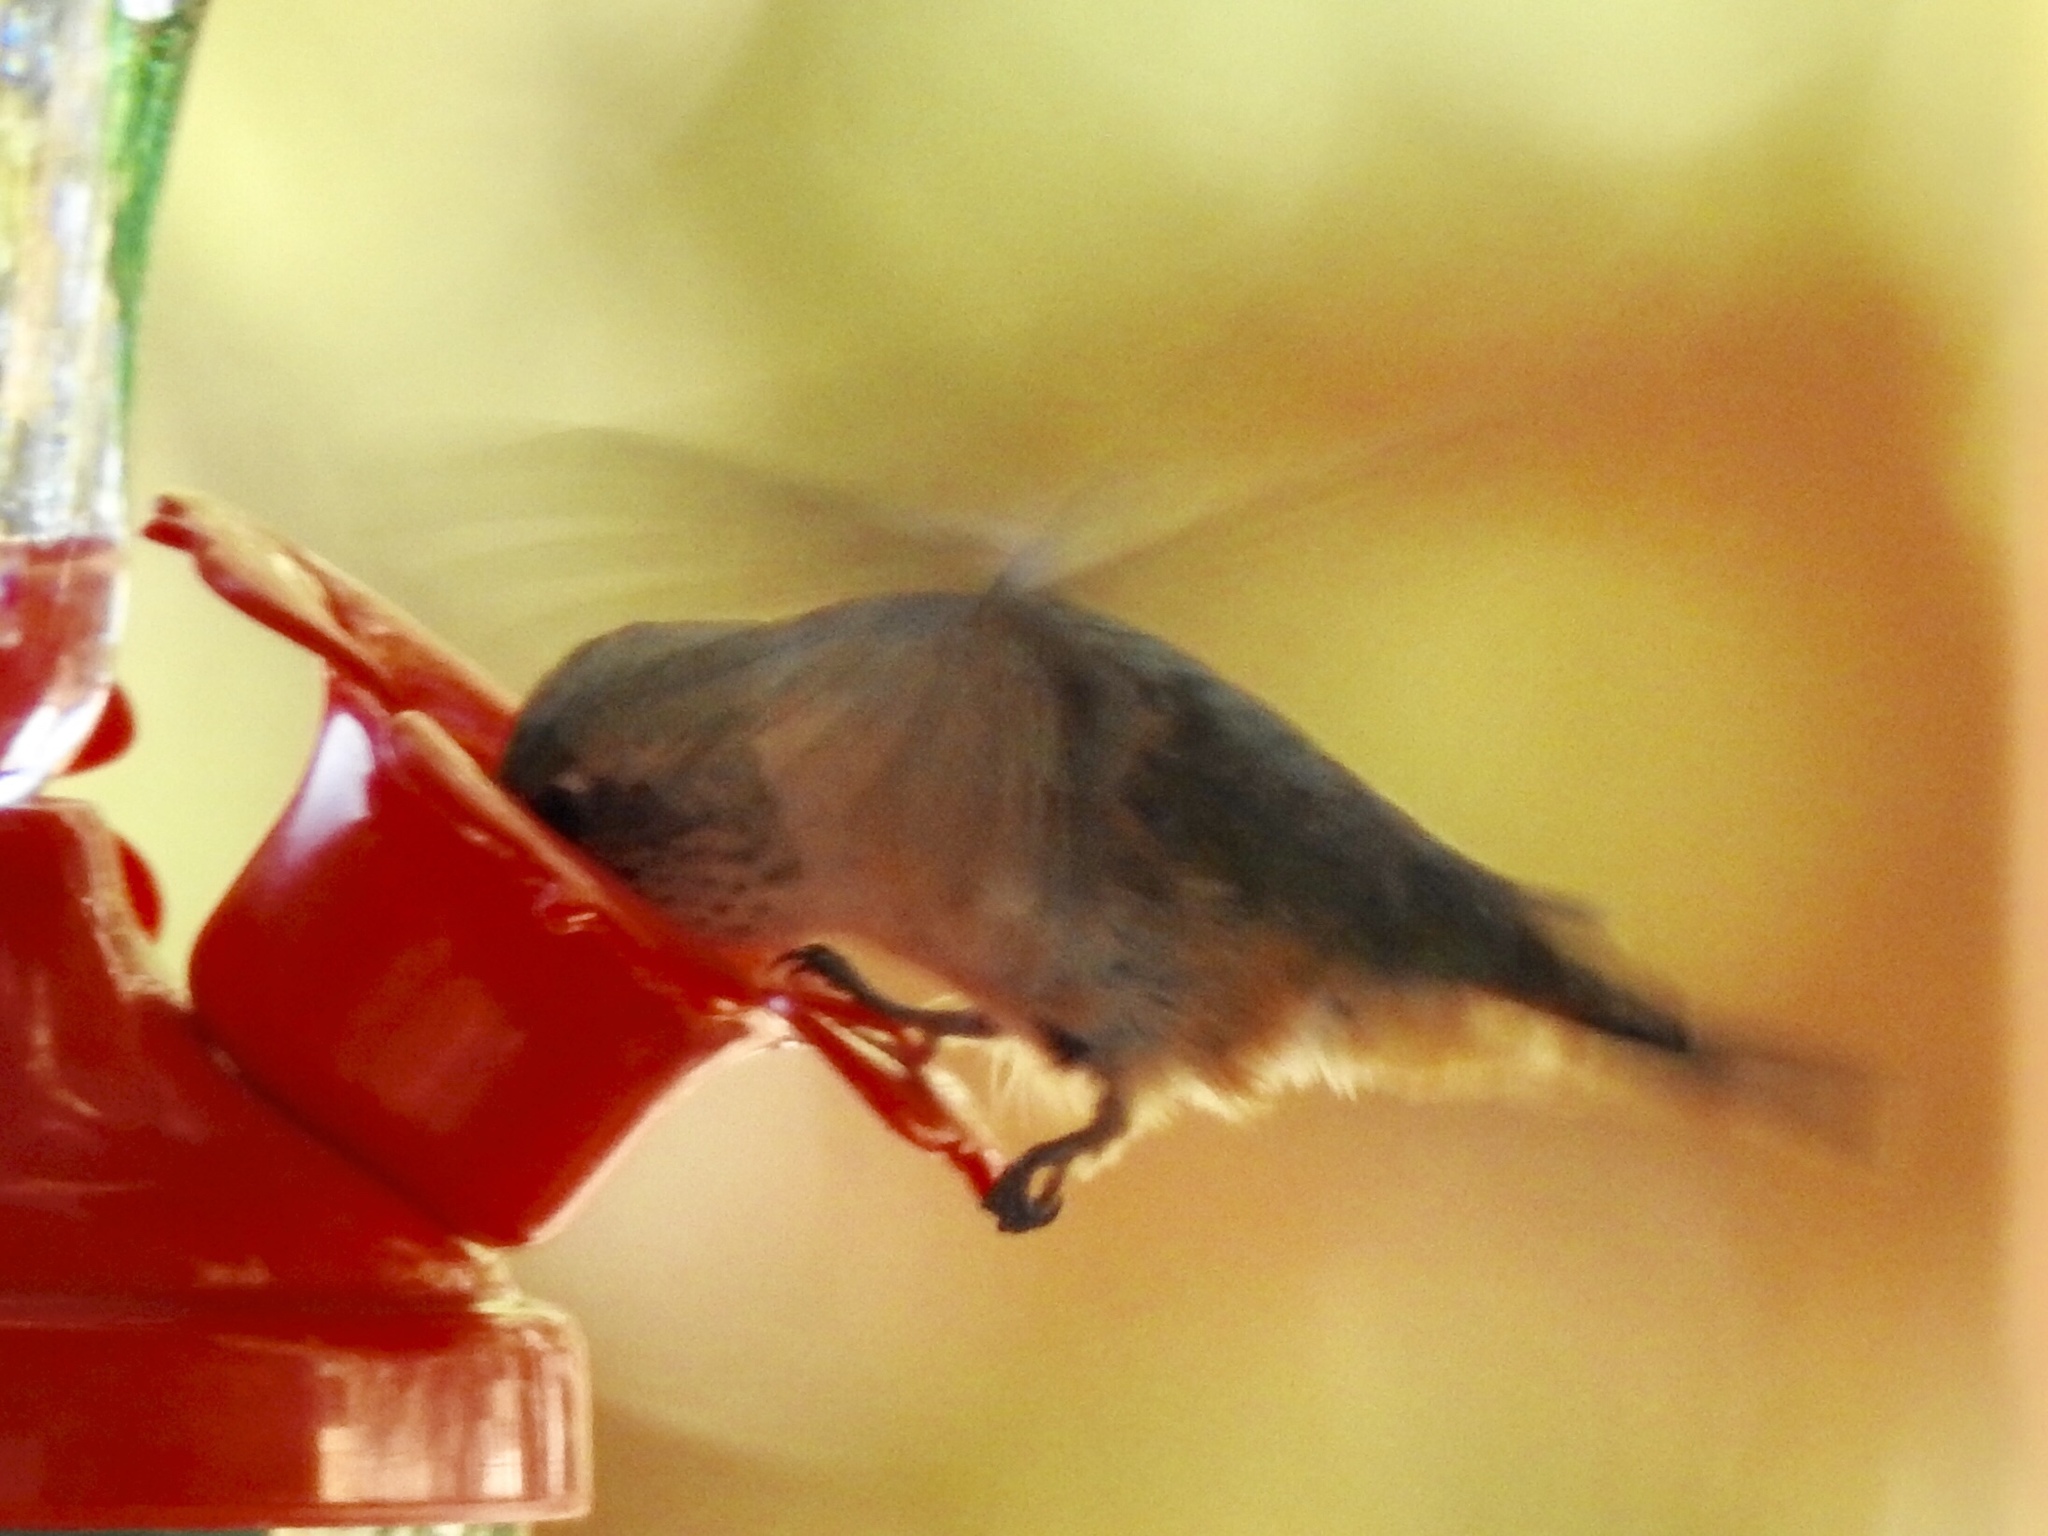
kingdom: Animalia
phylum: Chordata
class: Aves
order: Apodiformes
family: Trochilidae
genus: Selasphorus
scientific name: Selasphorus platycercus
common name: Broad-tailed hummingbird
